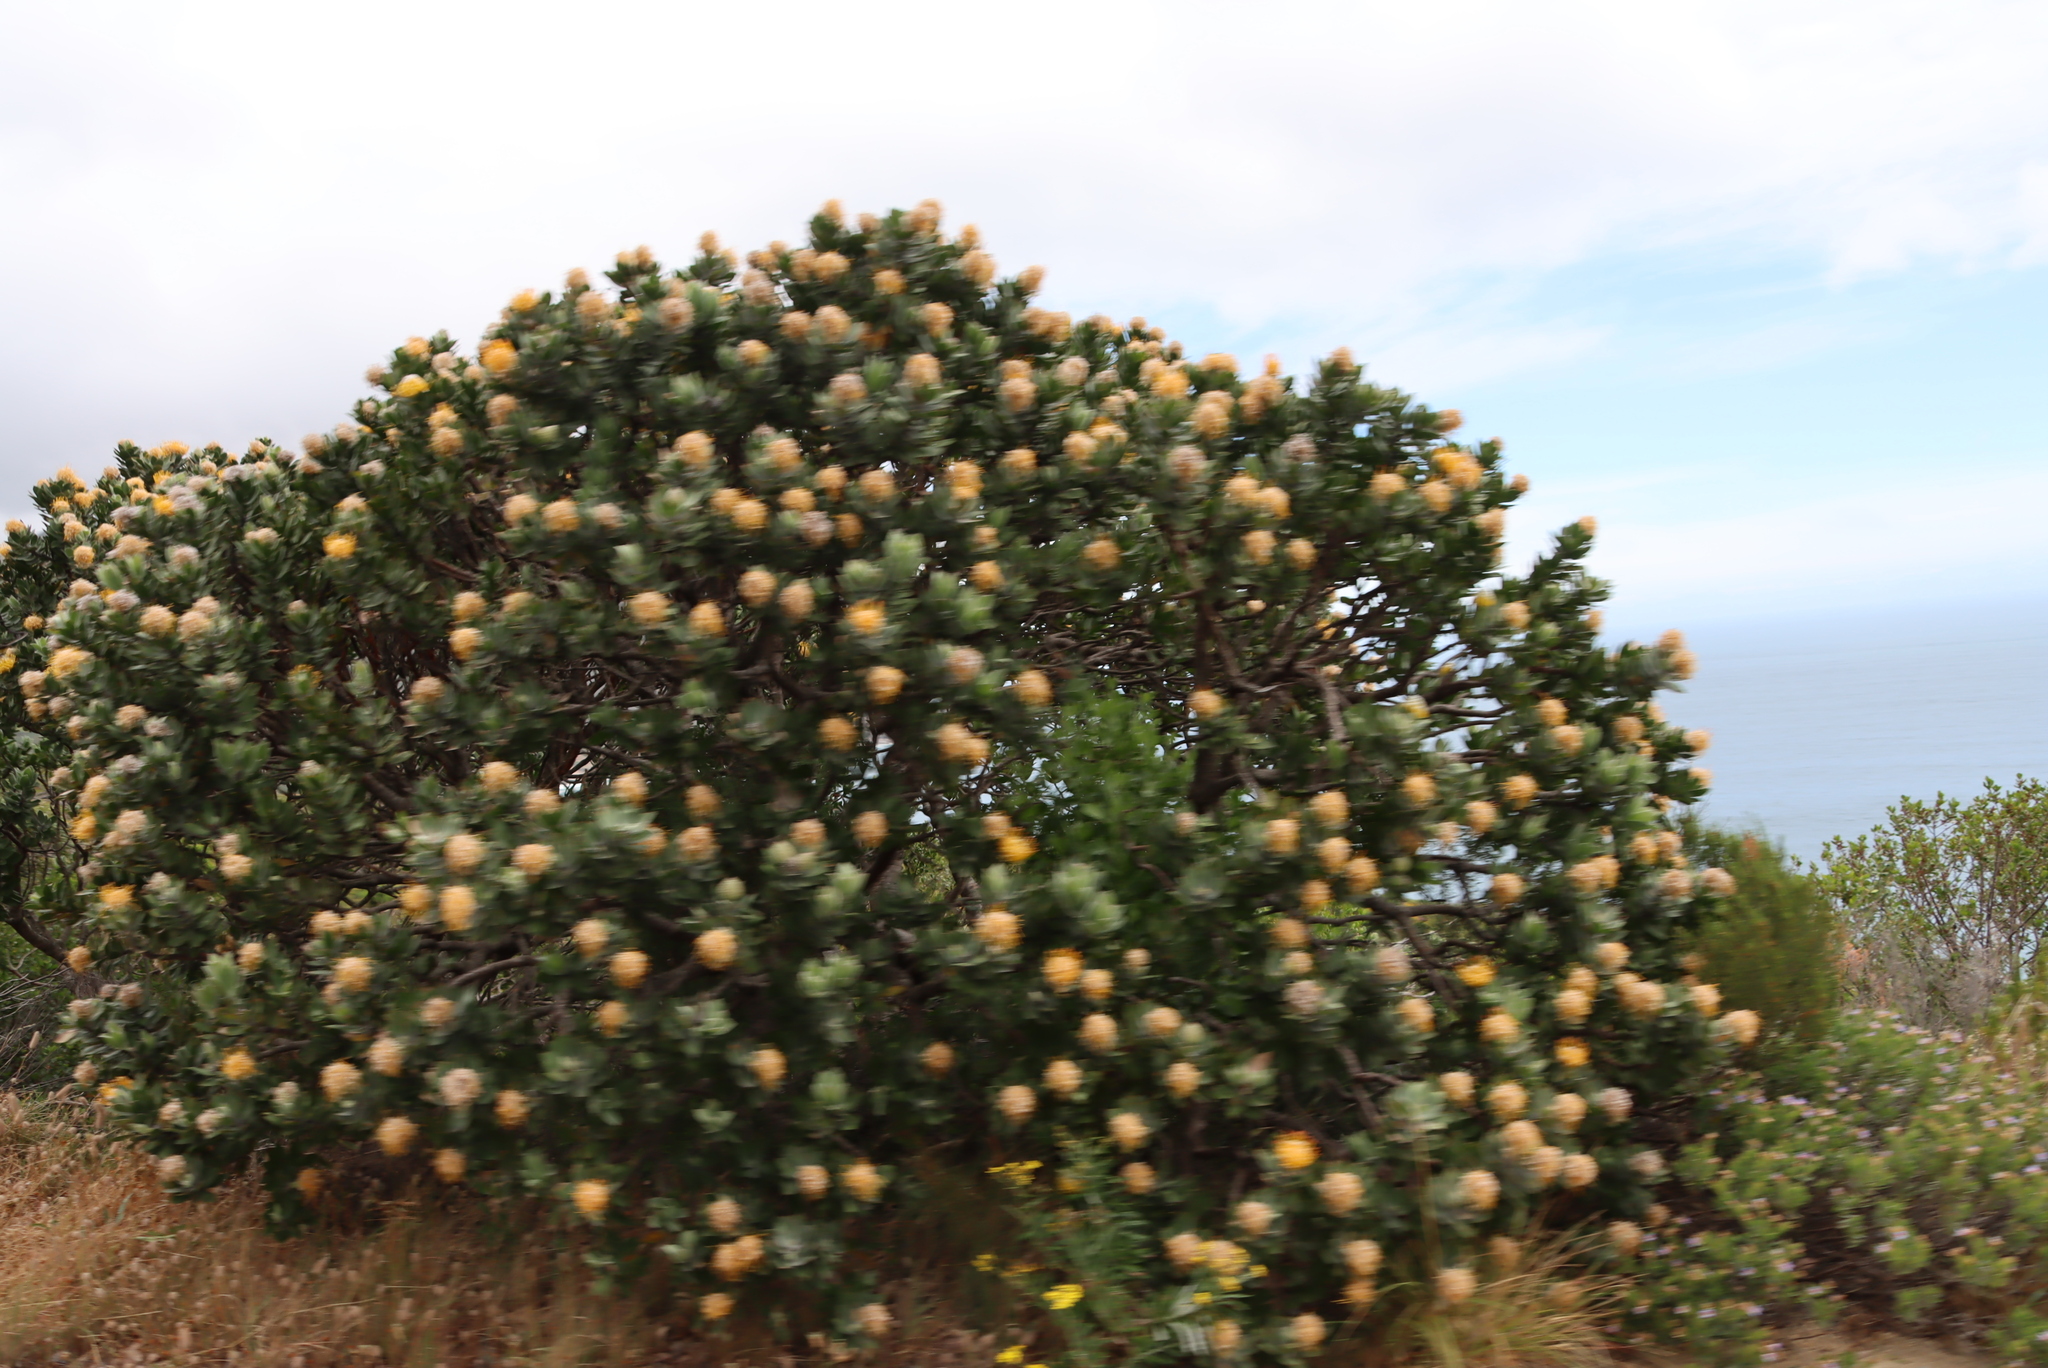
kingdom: Plantae
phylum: Tracheophyta
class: Magnoliopsida
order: Proteales
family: Proteaceae
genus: Leucospermum
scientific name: Leucospermum conocarpodendron
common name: Tree pincushion
